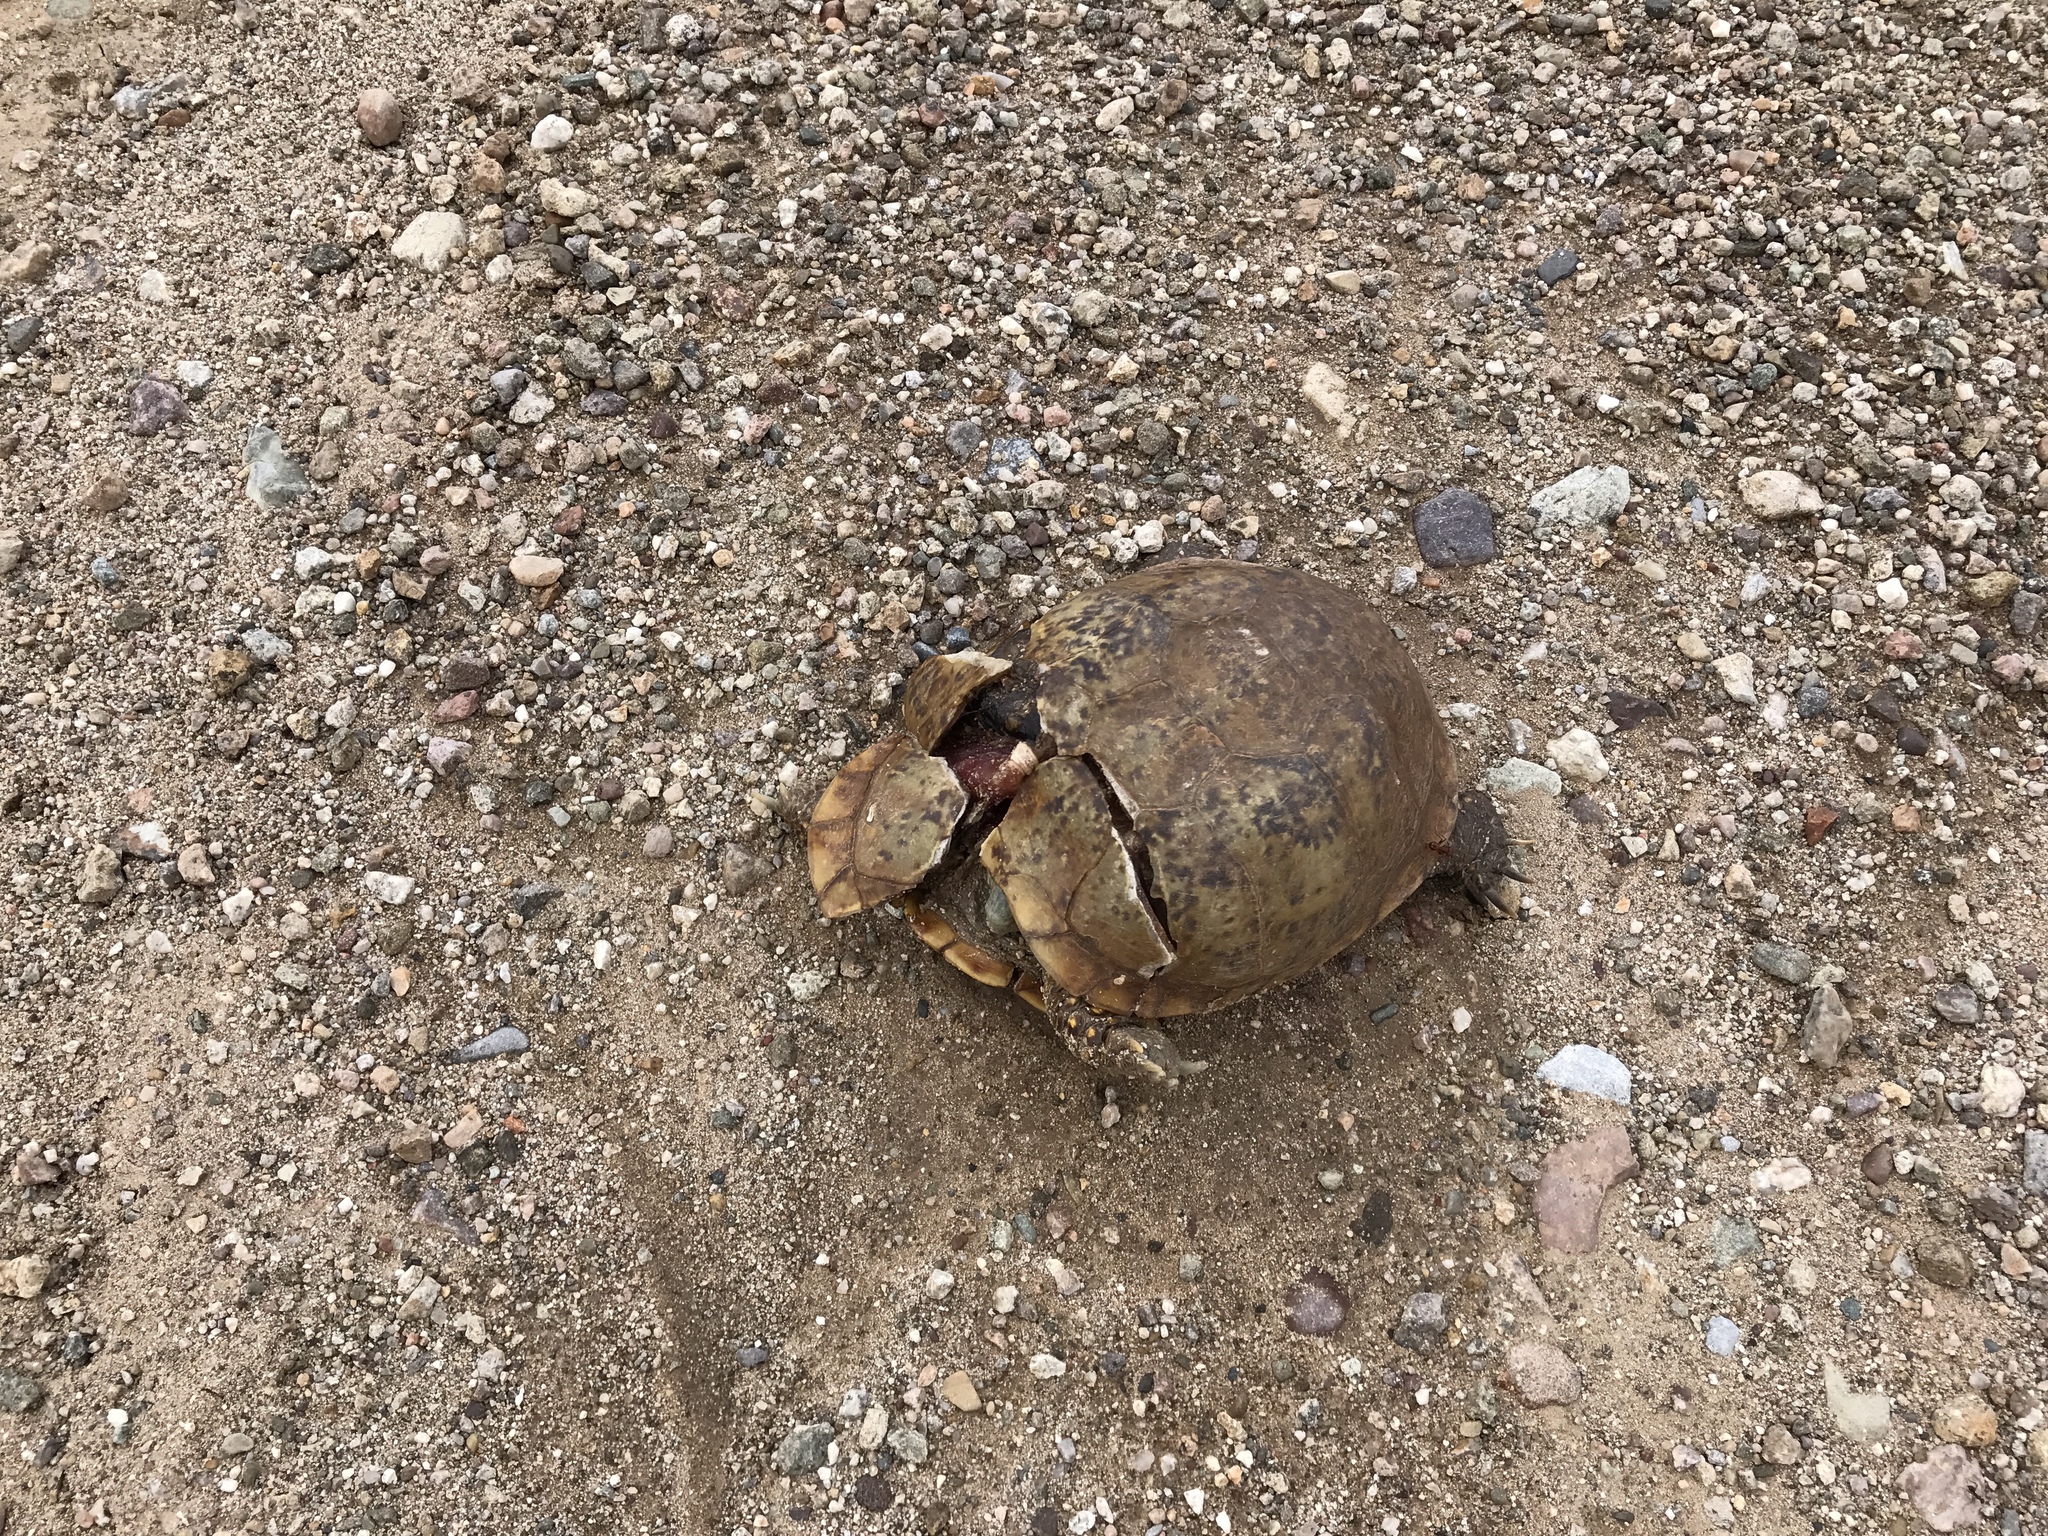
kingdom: Animalia
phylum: Chordata
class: Testudines
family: Emydidae
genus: Terrapene
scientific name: Terrapene ornata
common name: Western box turtle
